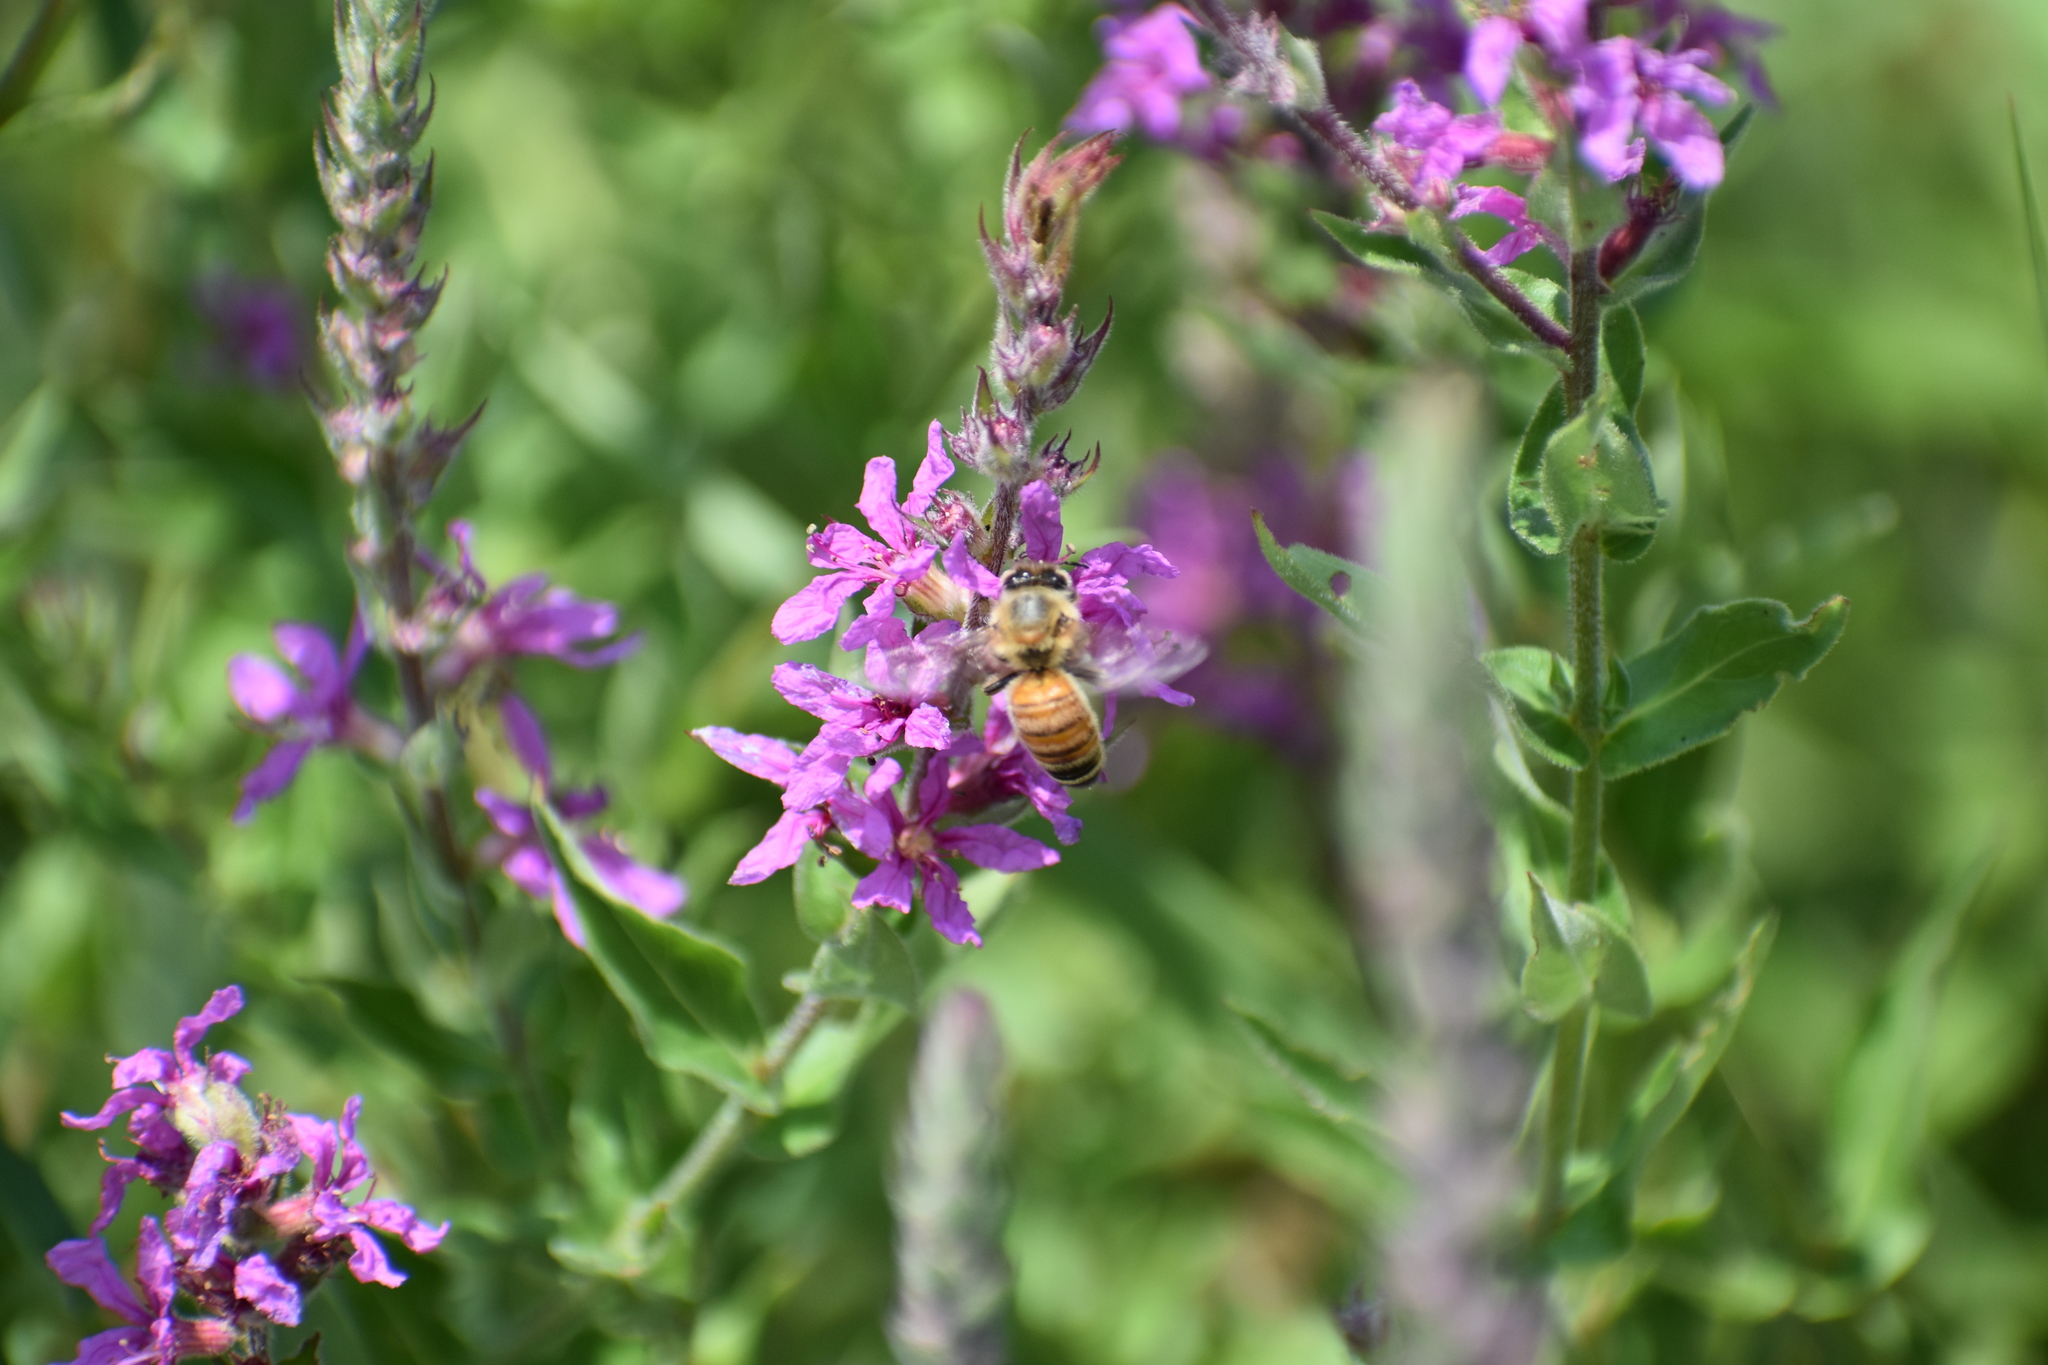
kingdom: Animalia
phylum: Arthropoda
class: Insecta
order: Hymenoptera
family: Apidae
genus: Apis
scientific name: Apis mellifera
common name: Honey bee
